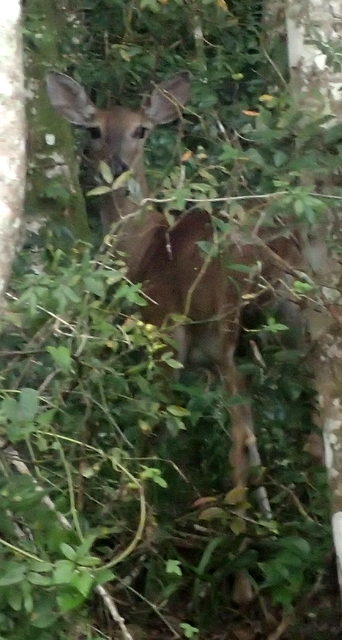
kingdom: Animalia
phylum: Chordata
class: Mammalia
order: Artiodactyla
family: Cervidae
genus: Odocoileus
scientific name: Odocoileus virginianus
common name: White-tailed deer
